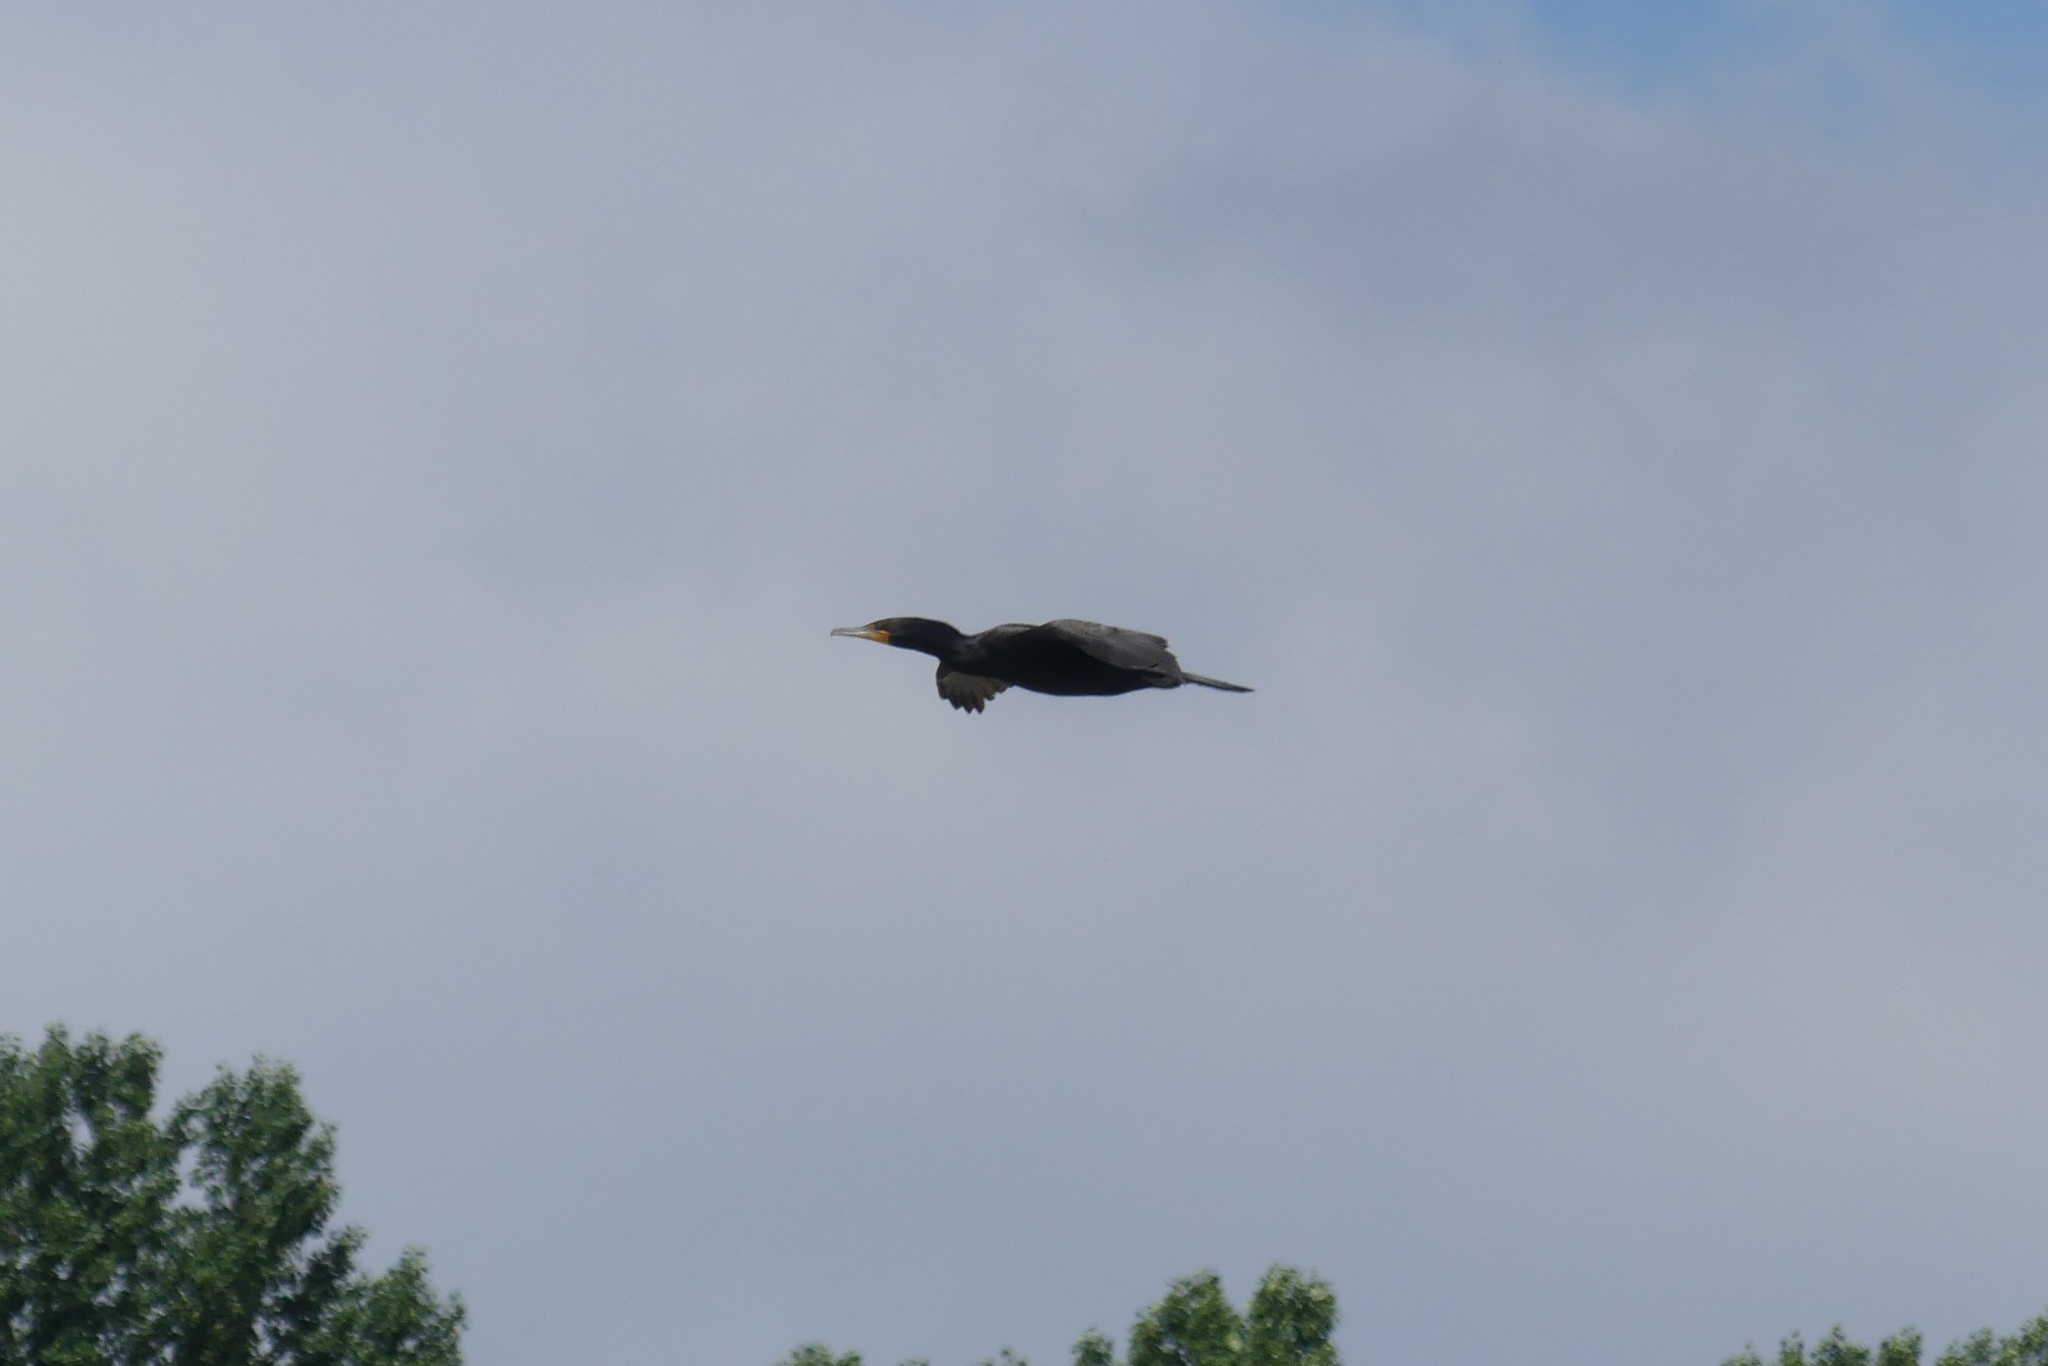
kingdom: Animalia
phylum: Chordata
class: Aves
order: Suliformes
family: Phalacrocoracidae
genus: Phalacrocorax
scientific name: Phalacrocorax auritus
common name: Double-crested cormorant
